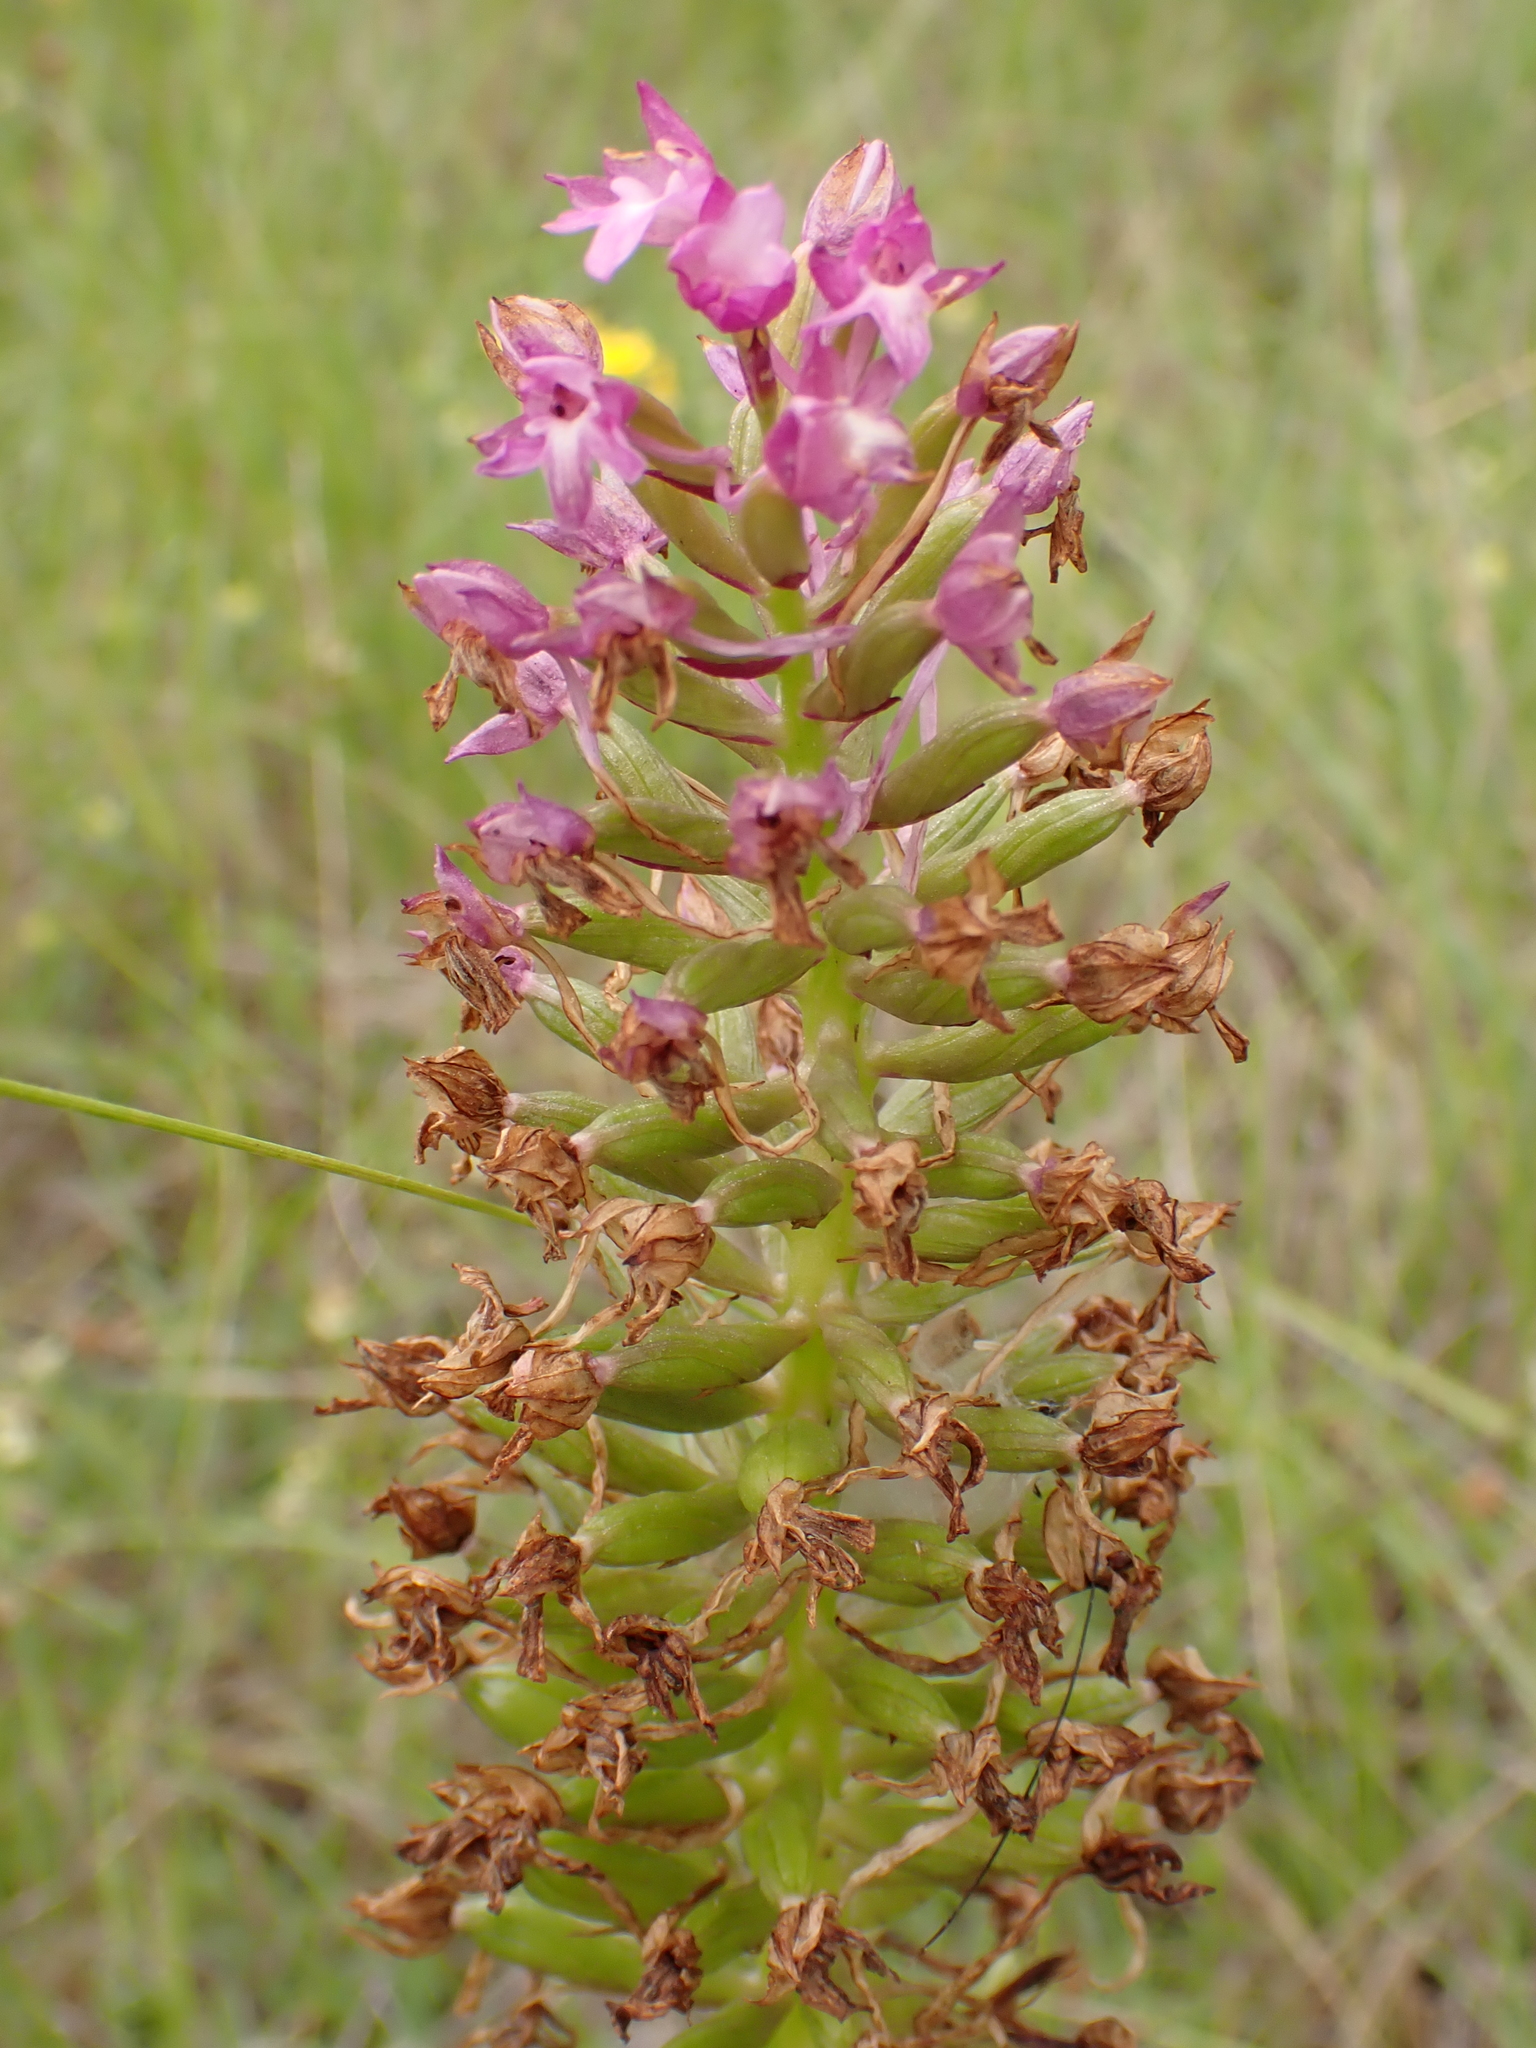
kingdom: Plantae
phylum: Tracheophyta
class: Liliopsida
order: Asparagales
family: Orchidaceae
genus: Anacamptis
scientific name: Anacamptis pyramidalis
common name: Pyramidal orchid
